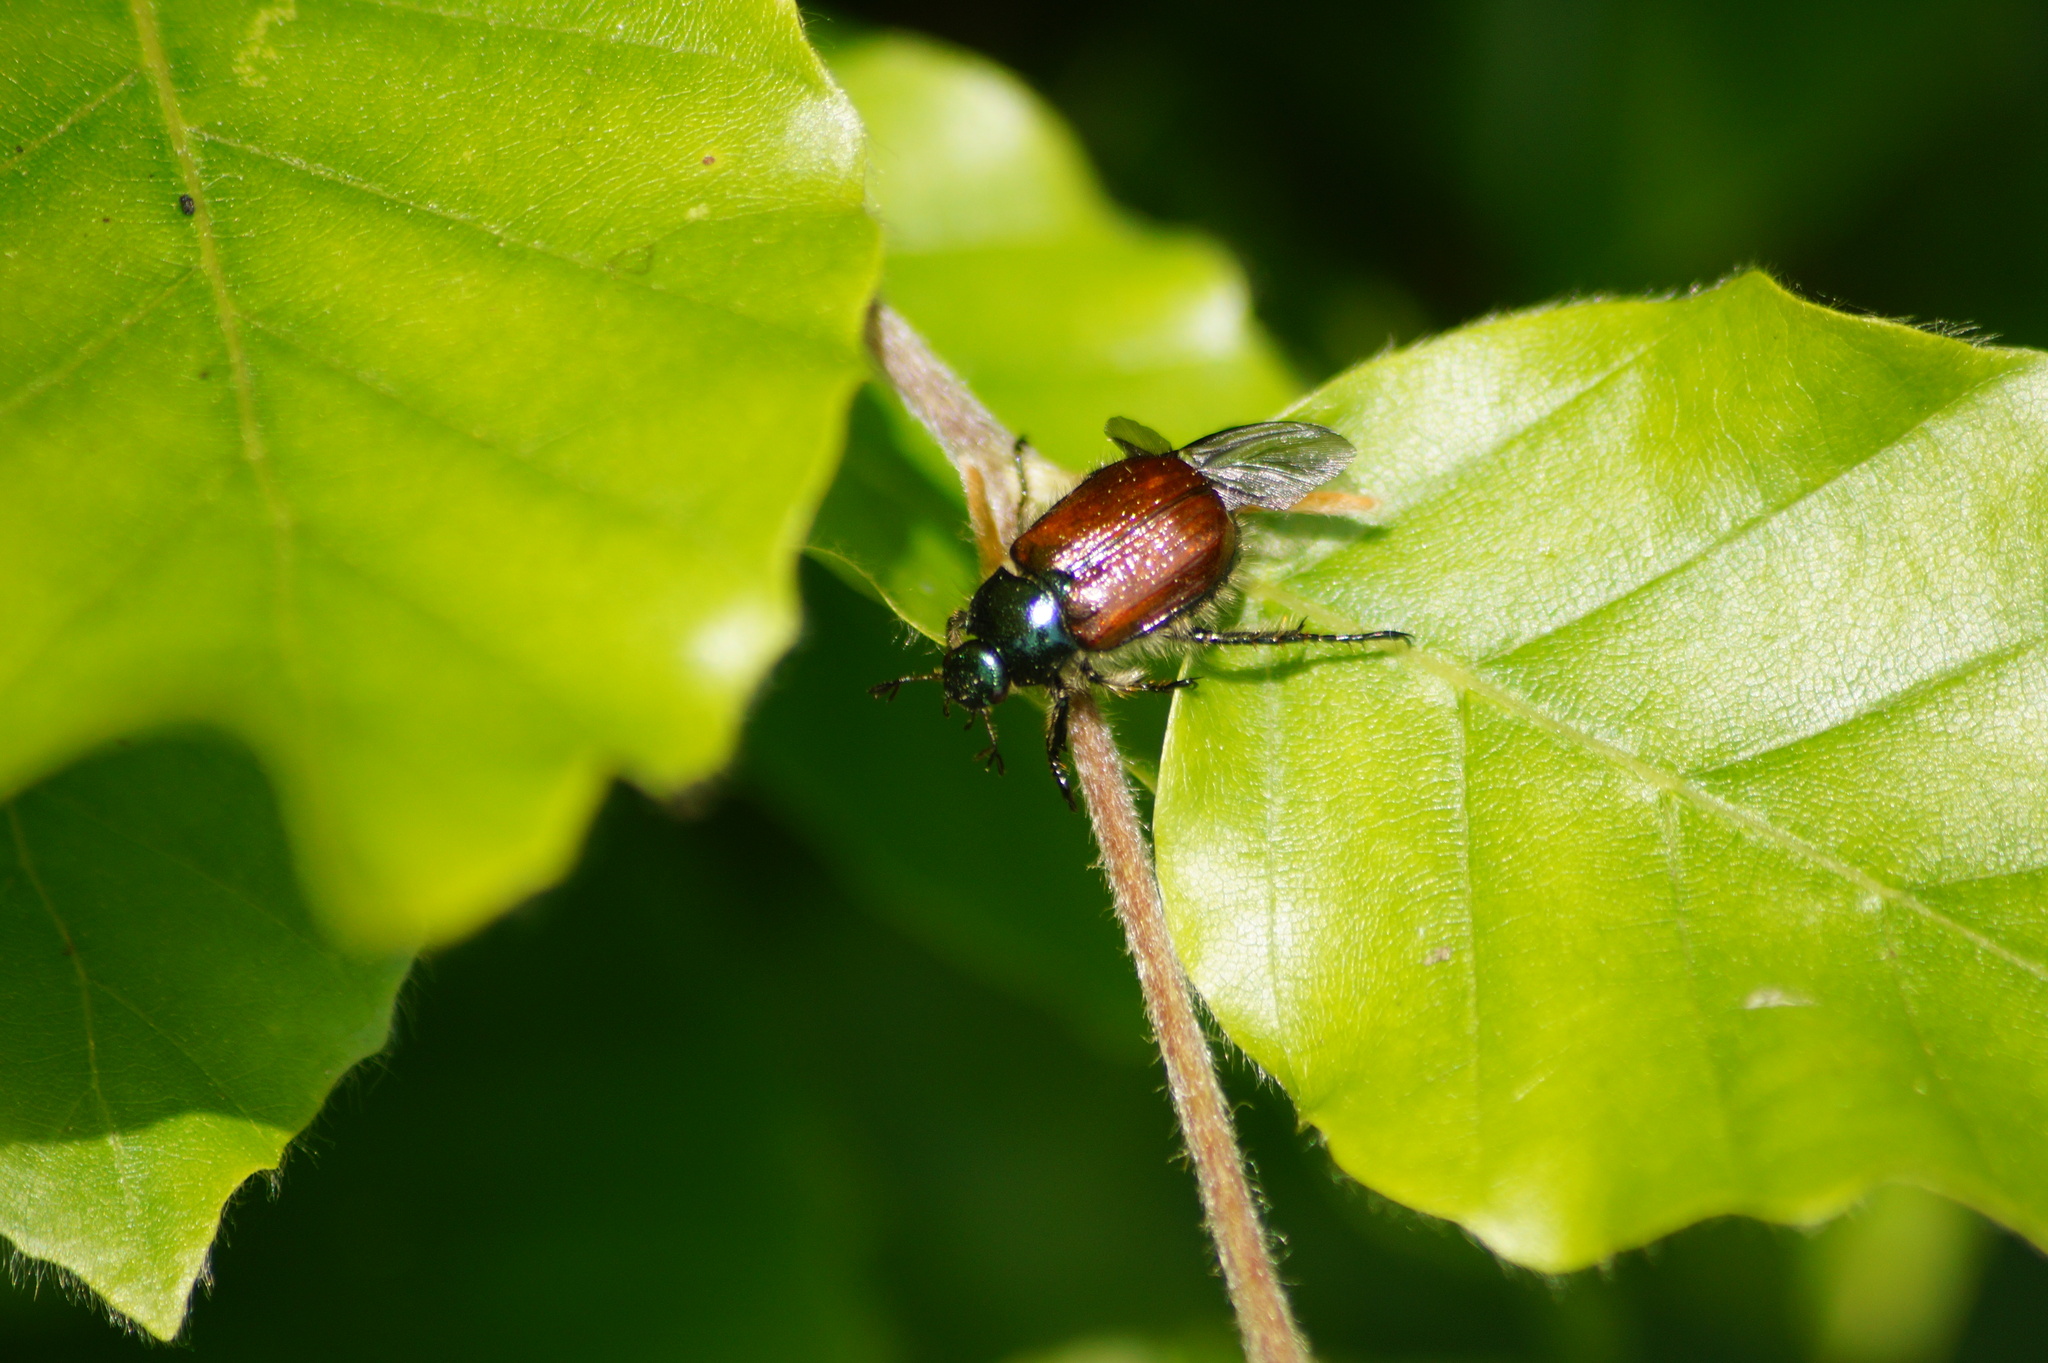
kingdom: Animalia
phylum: Arthropoda
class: Insecta
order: Coleoptera
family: Scarabaeidae
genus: Phyllopertha
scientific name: Phyllopertha horticola
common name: Garden chafer
